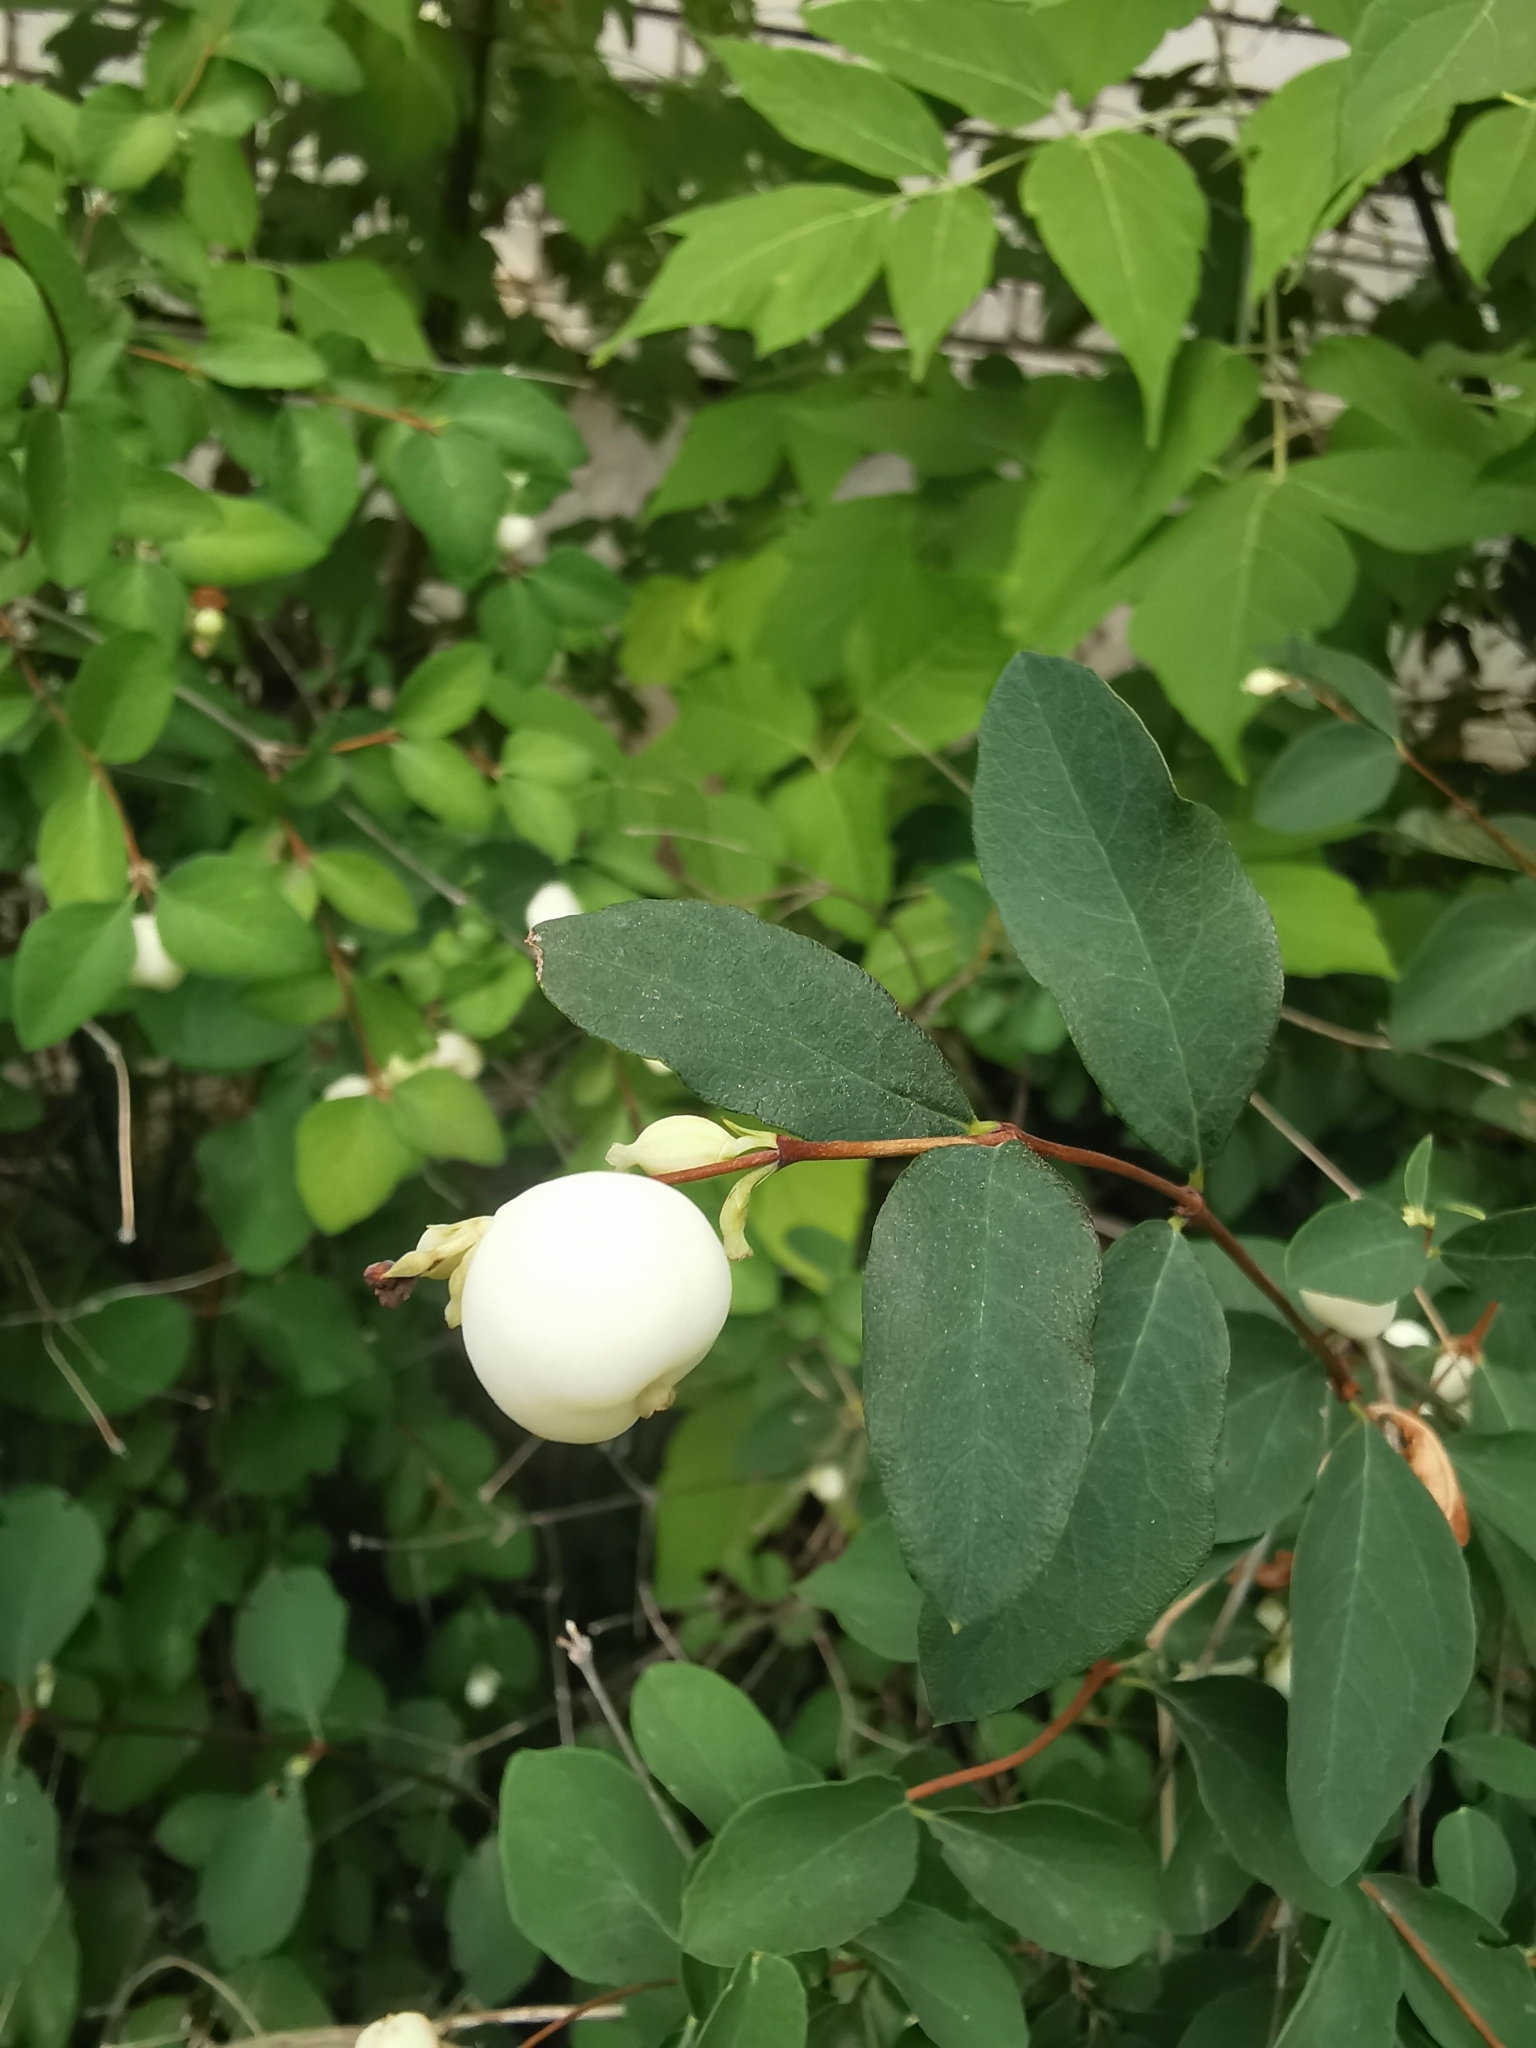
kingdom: Plantae
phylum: Tracheophyta
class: Magnoliopsida
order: Dipsacales
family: Caprifoliaceae
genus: Symphoricarpos
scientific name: Symphoricarpos albus
